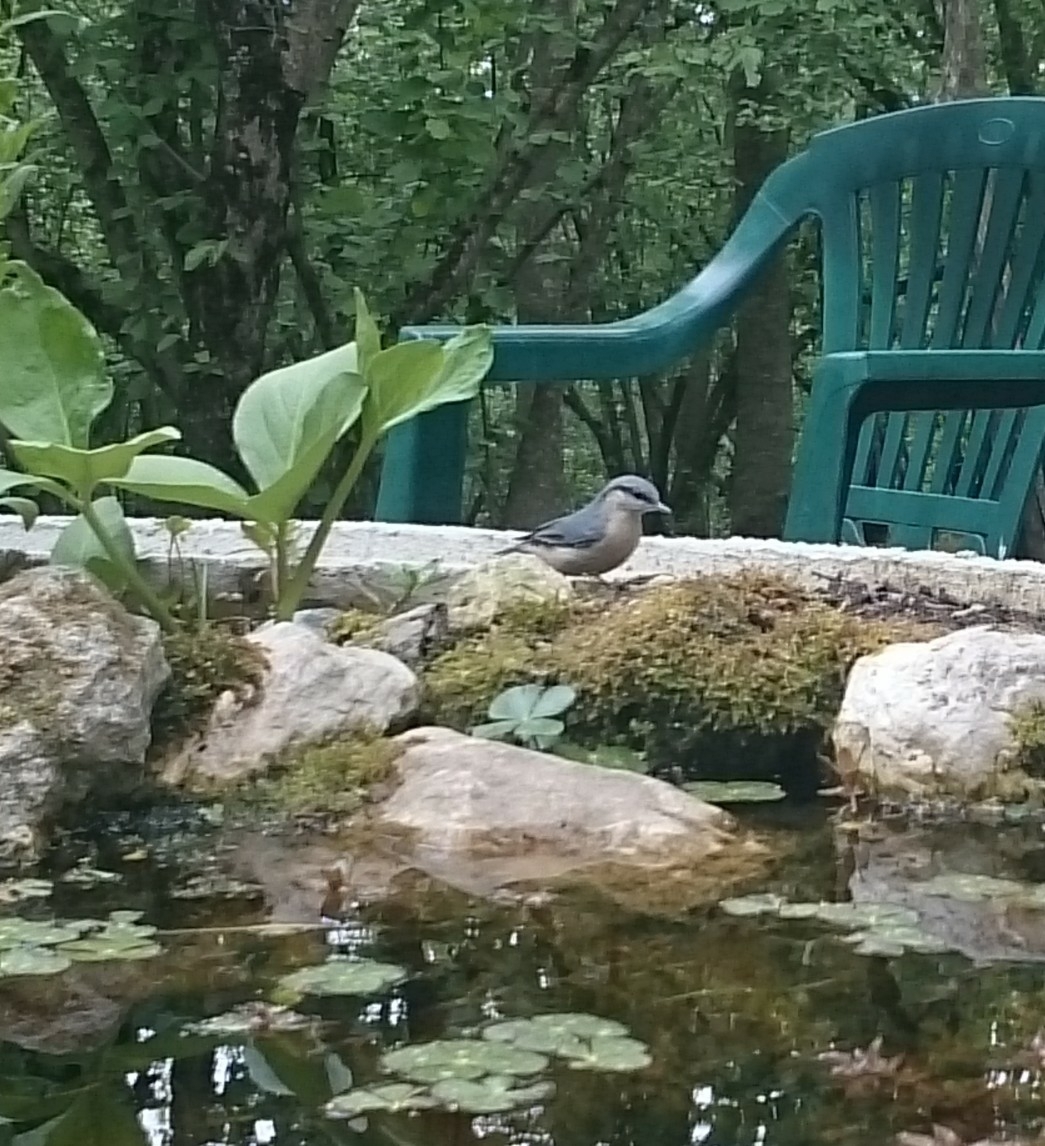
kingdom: Animalia
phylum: Chordata
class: Aves
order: Passeriformes
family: Sittidae
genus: Sitta
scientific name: Sitta europaea
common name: Eurasian nuthatch
